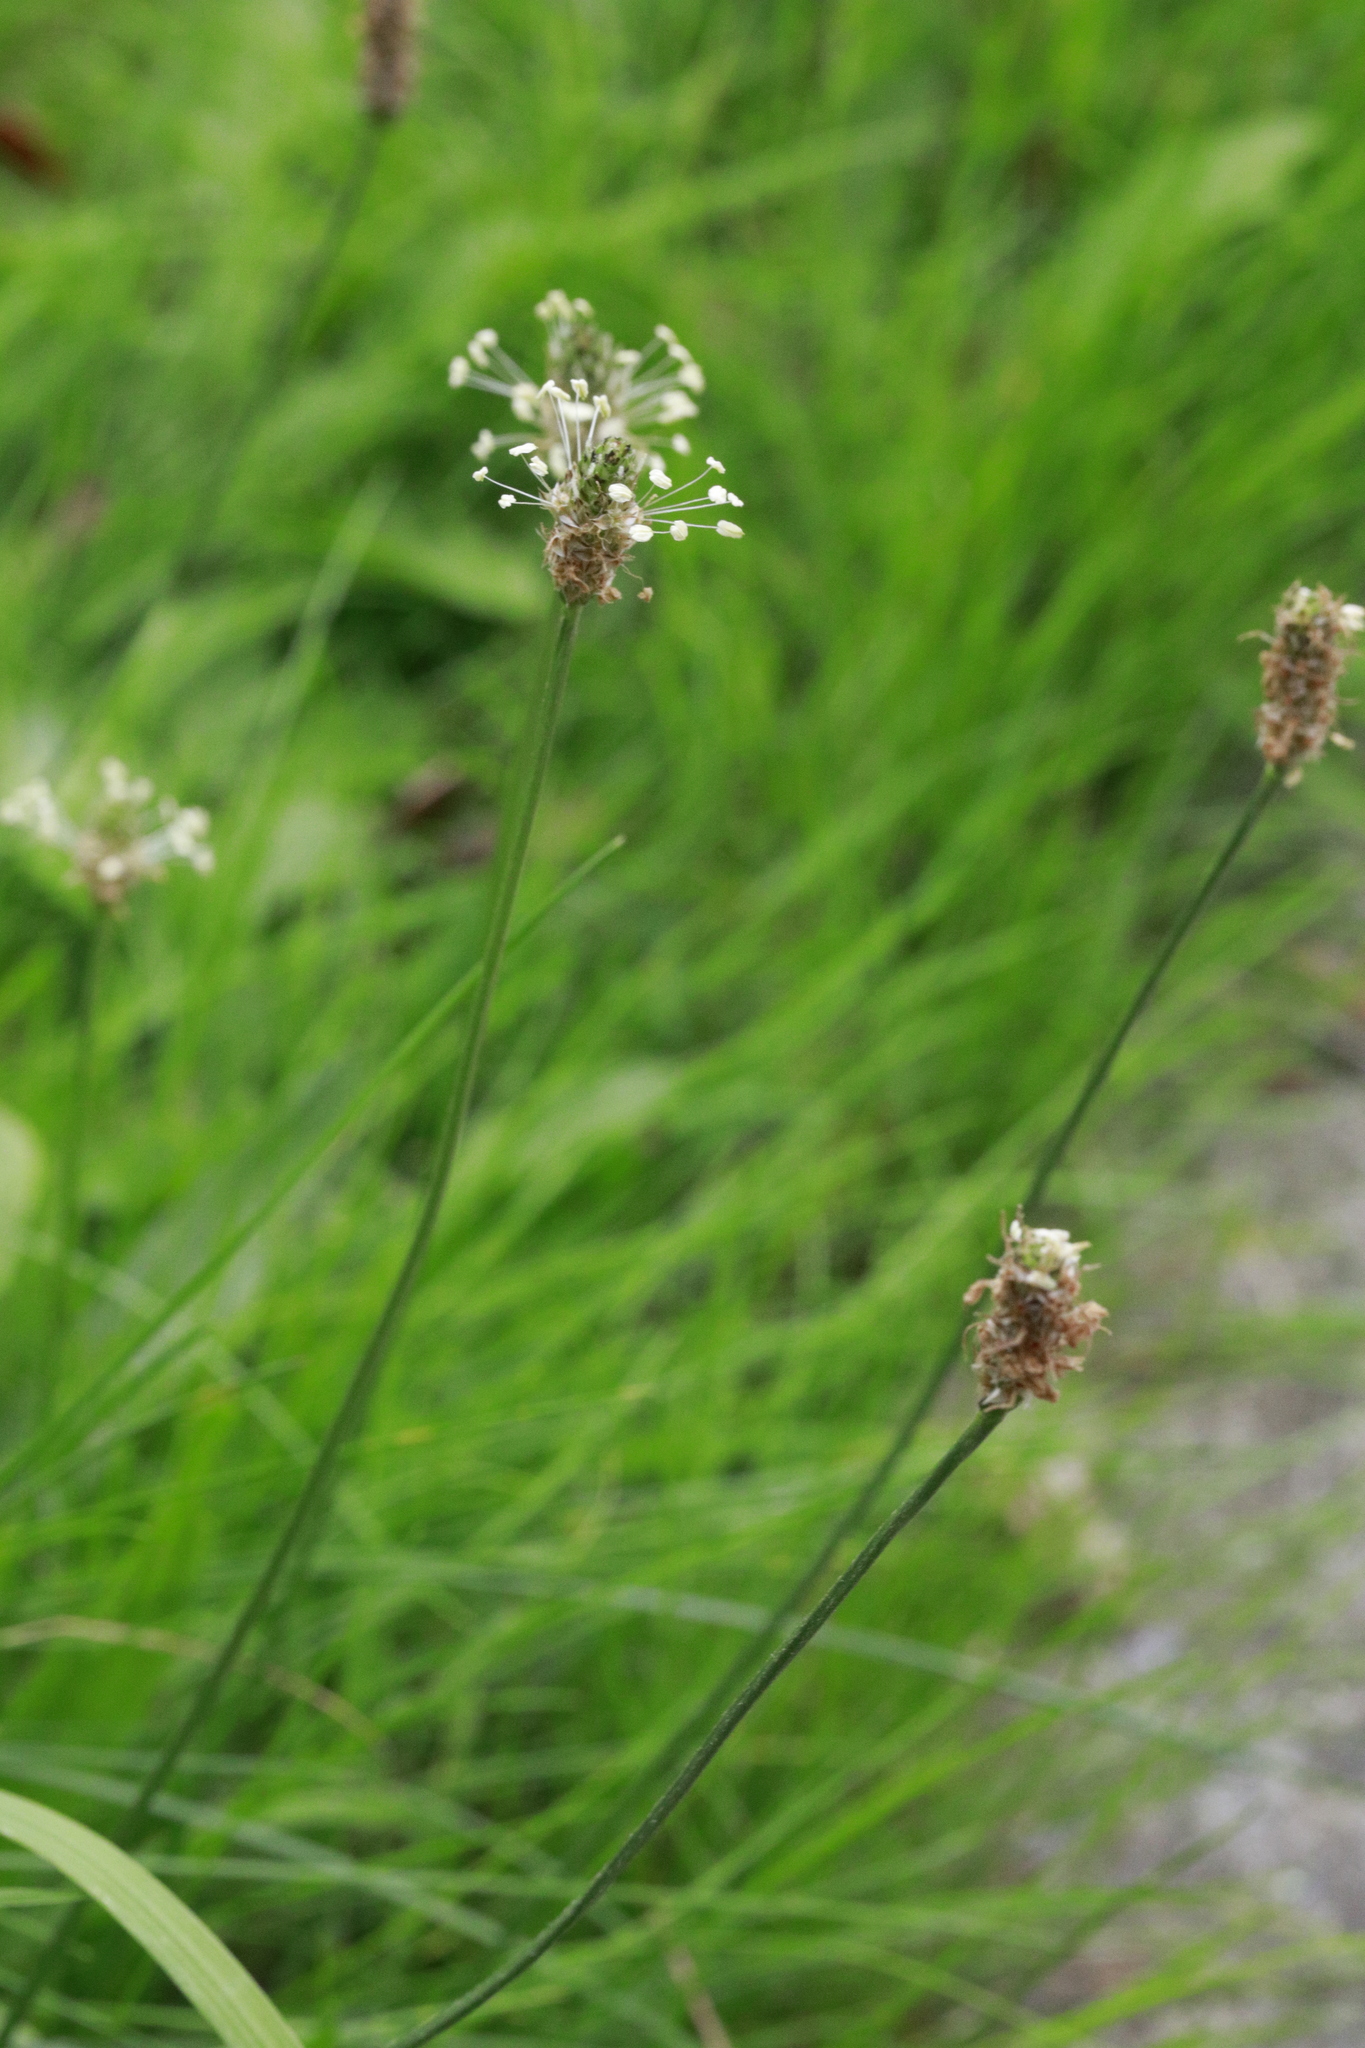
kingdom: Plantae
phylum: Tracheophyta
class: Magnoliopsida
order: Lamiales
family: Plantaginaceae
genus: Plantago
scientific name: Plantago lanceolata
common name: Ribwort plantain
